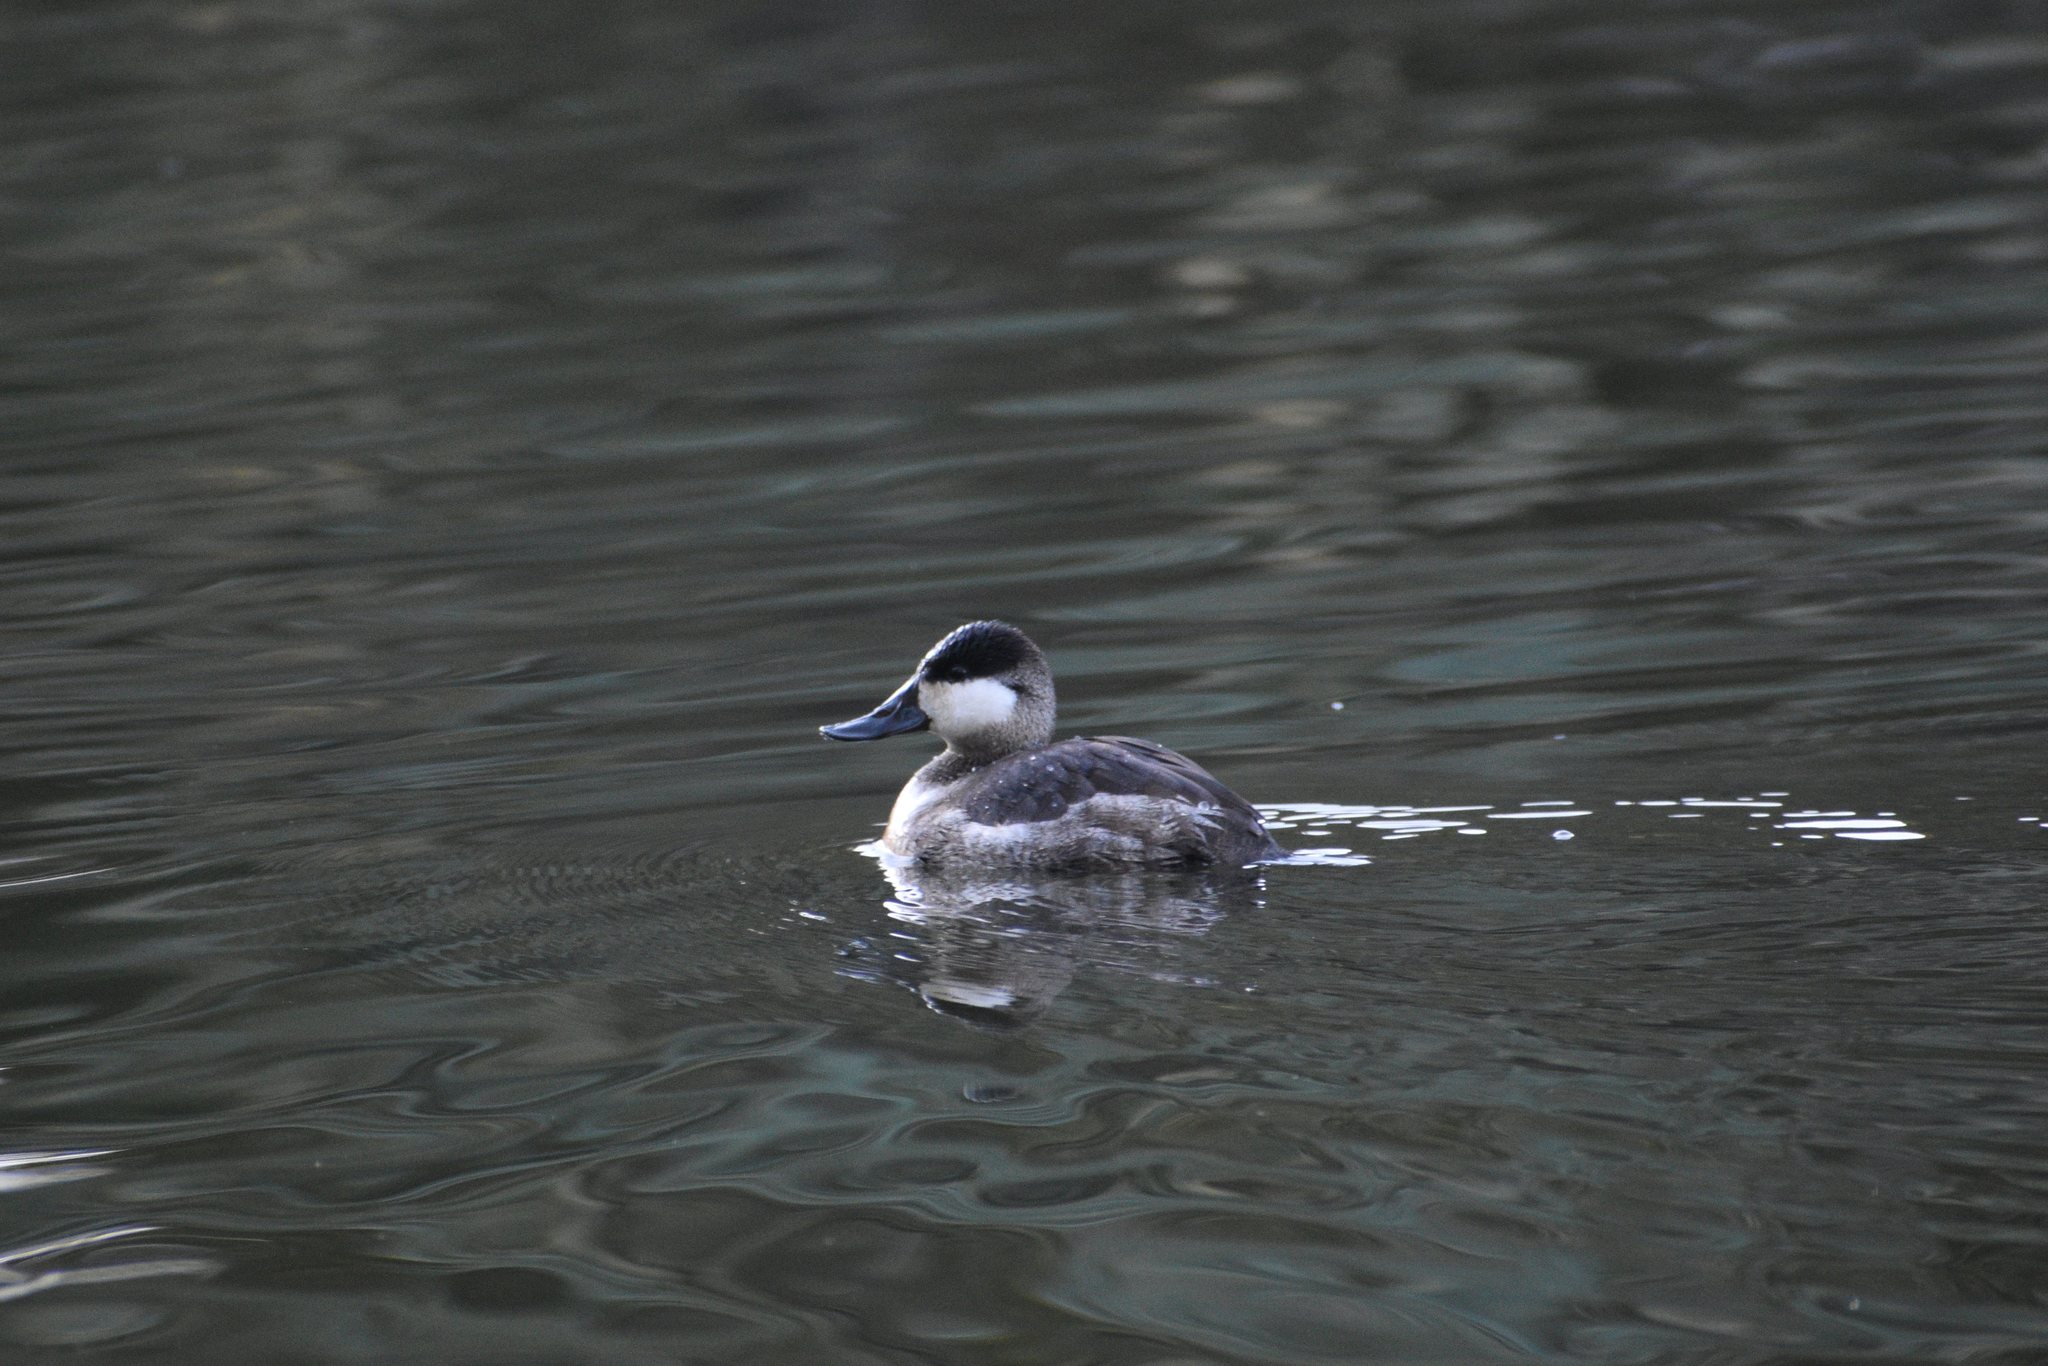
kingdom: Animalia
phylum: Chordata
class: Aves
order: Anseriformes
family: Anatidae
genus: Oxyura
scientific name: Oxyura jamaicensis
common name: Ruddy duck
